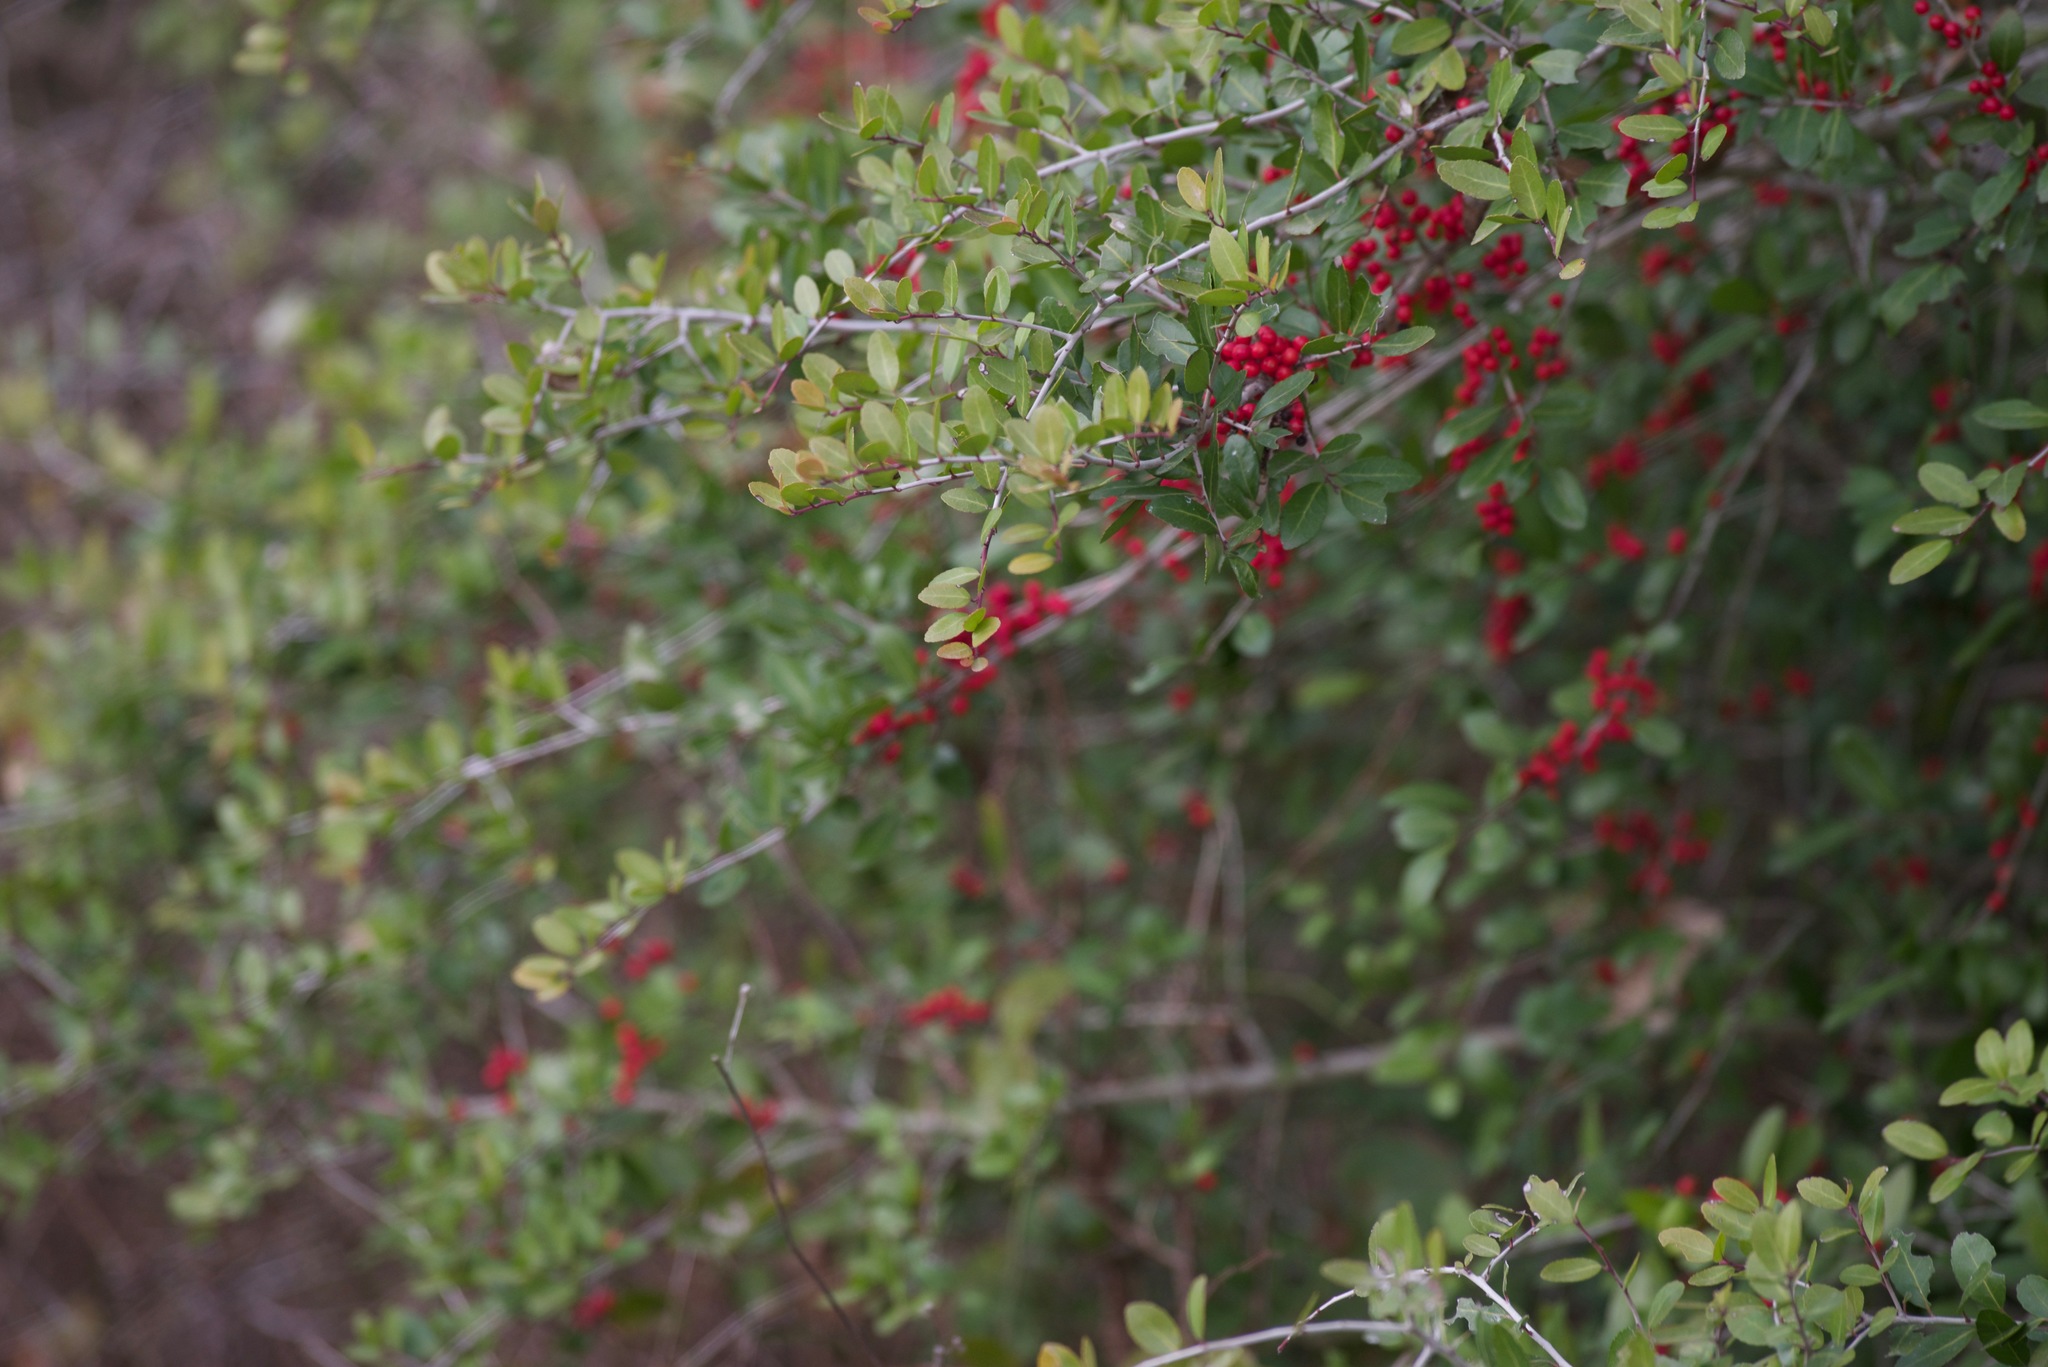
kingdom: Plantae
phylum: Tracheophyta
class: Magnoliopsida
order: Aquifoliales
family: Aquifoliaceae
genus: Ilex
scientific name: Ilex vomitoria
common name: Yaupon holly
